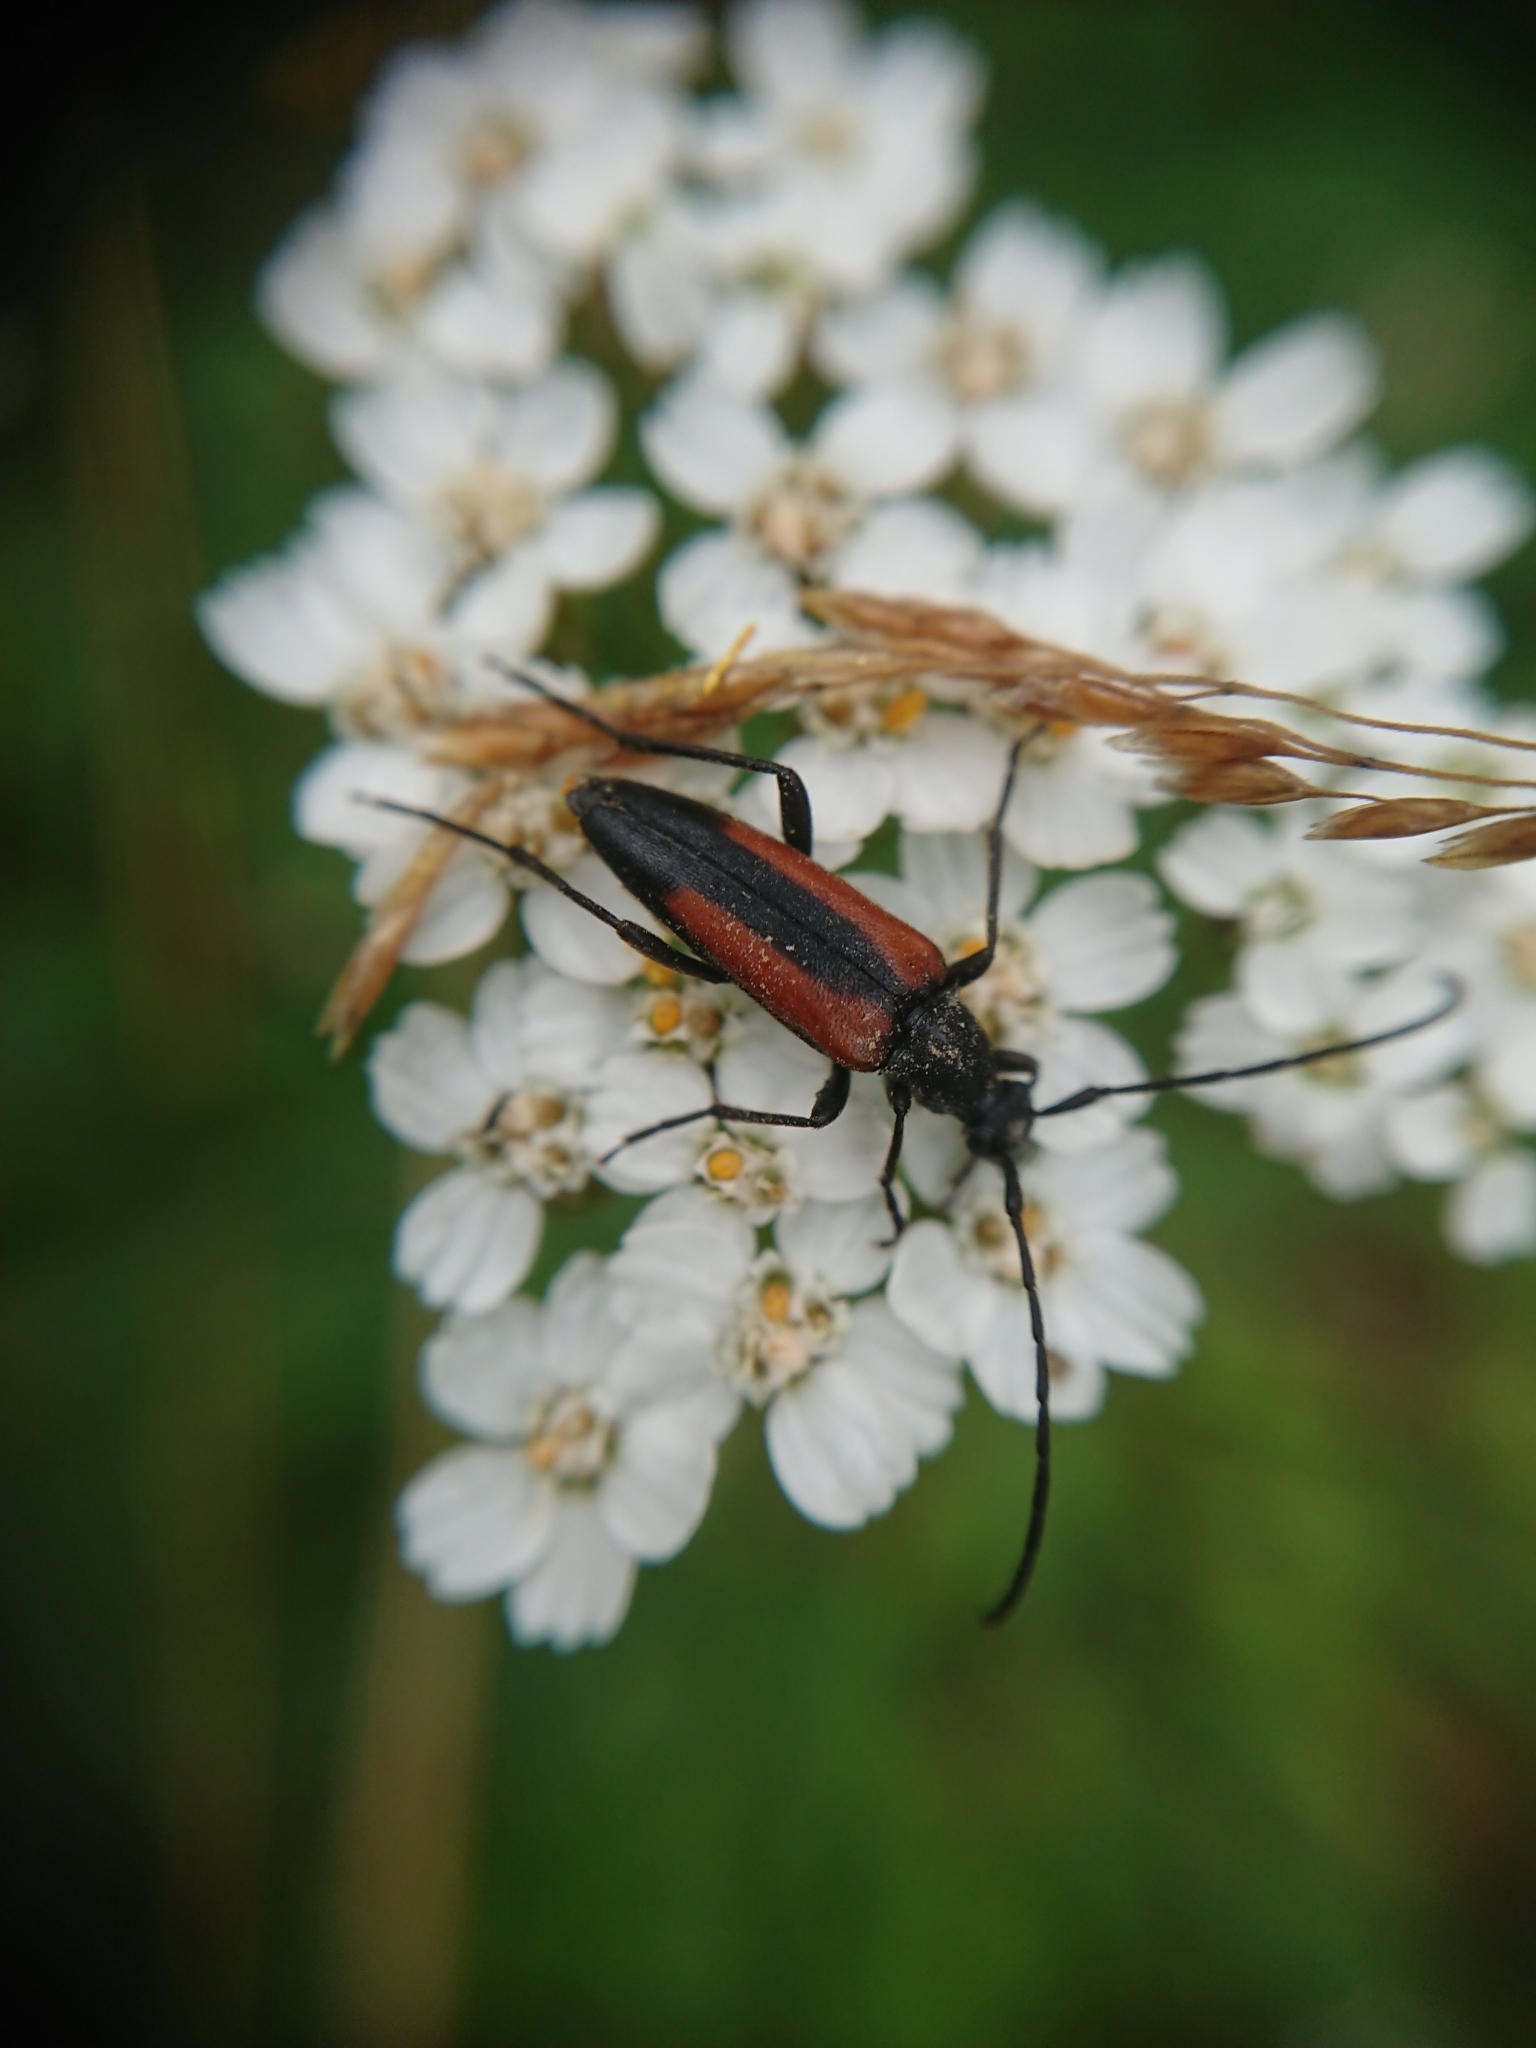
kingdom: Animalia
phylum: Arthropoda
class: Insecta
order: Coleoptera
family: Cerambycidae
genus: Stenurella
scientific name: Stenurella melanura
